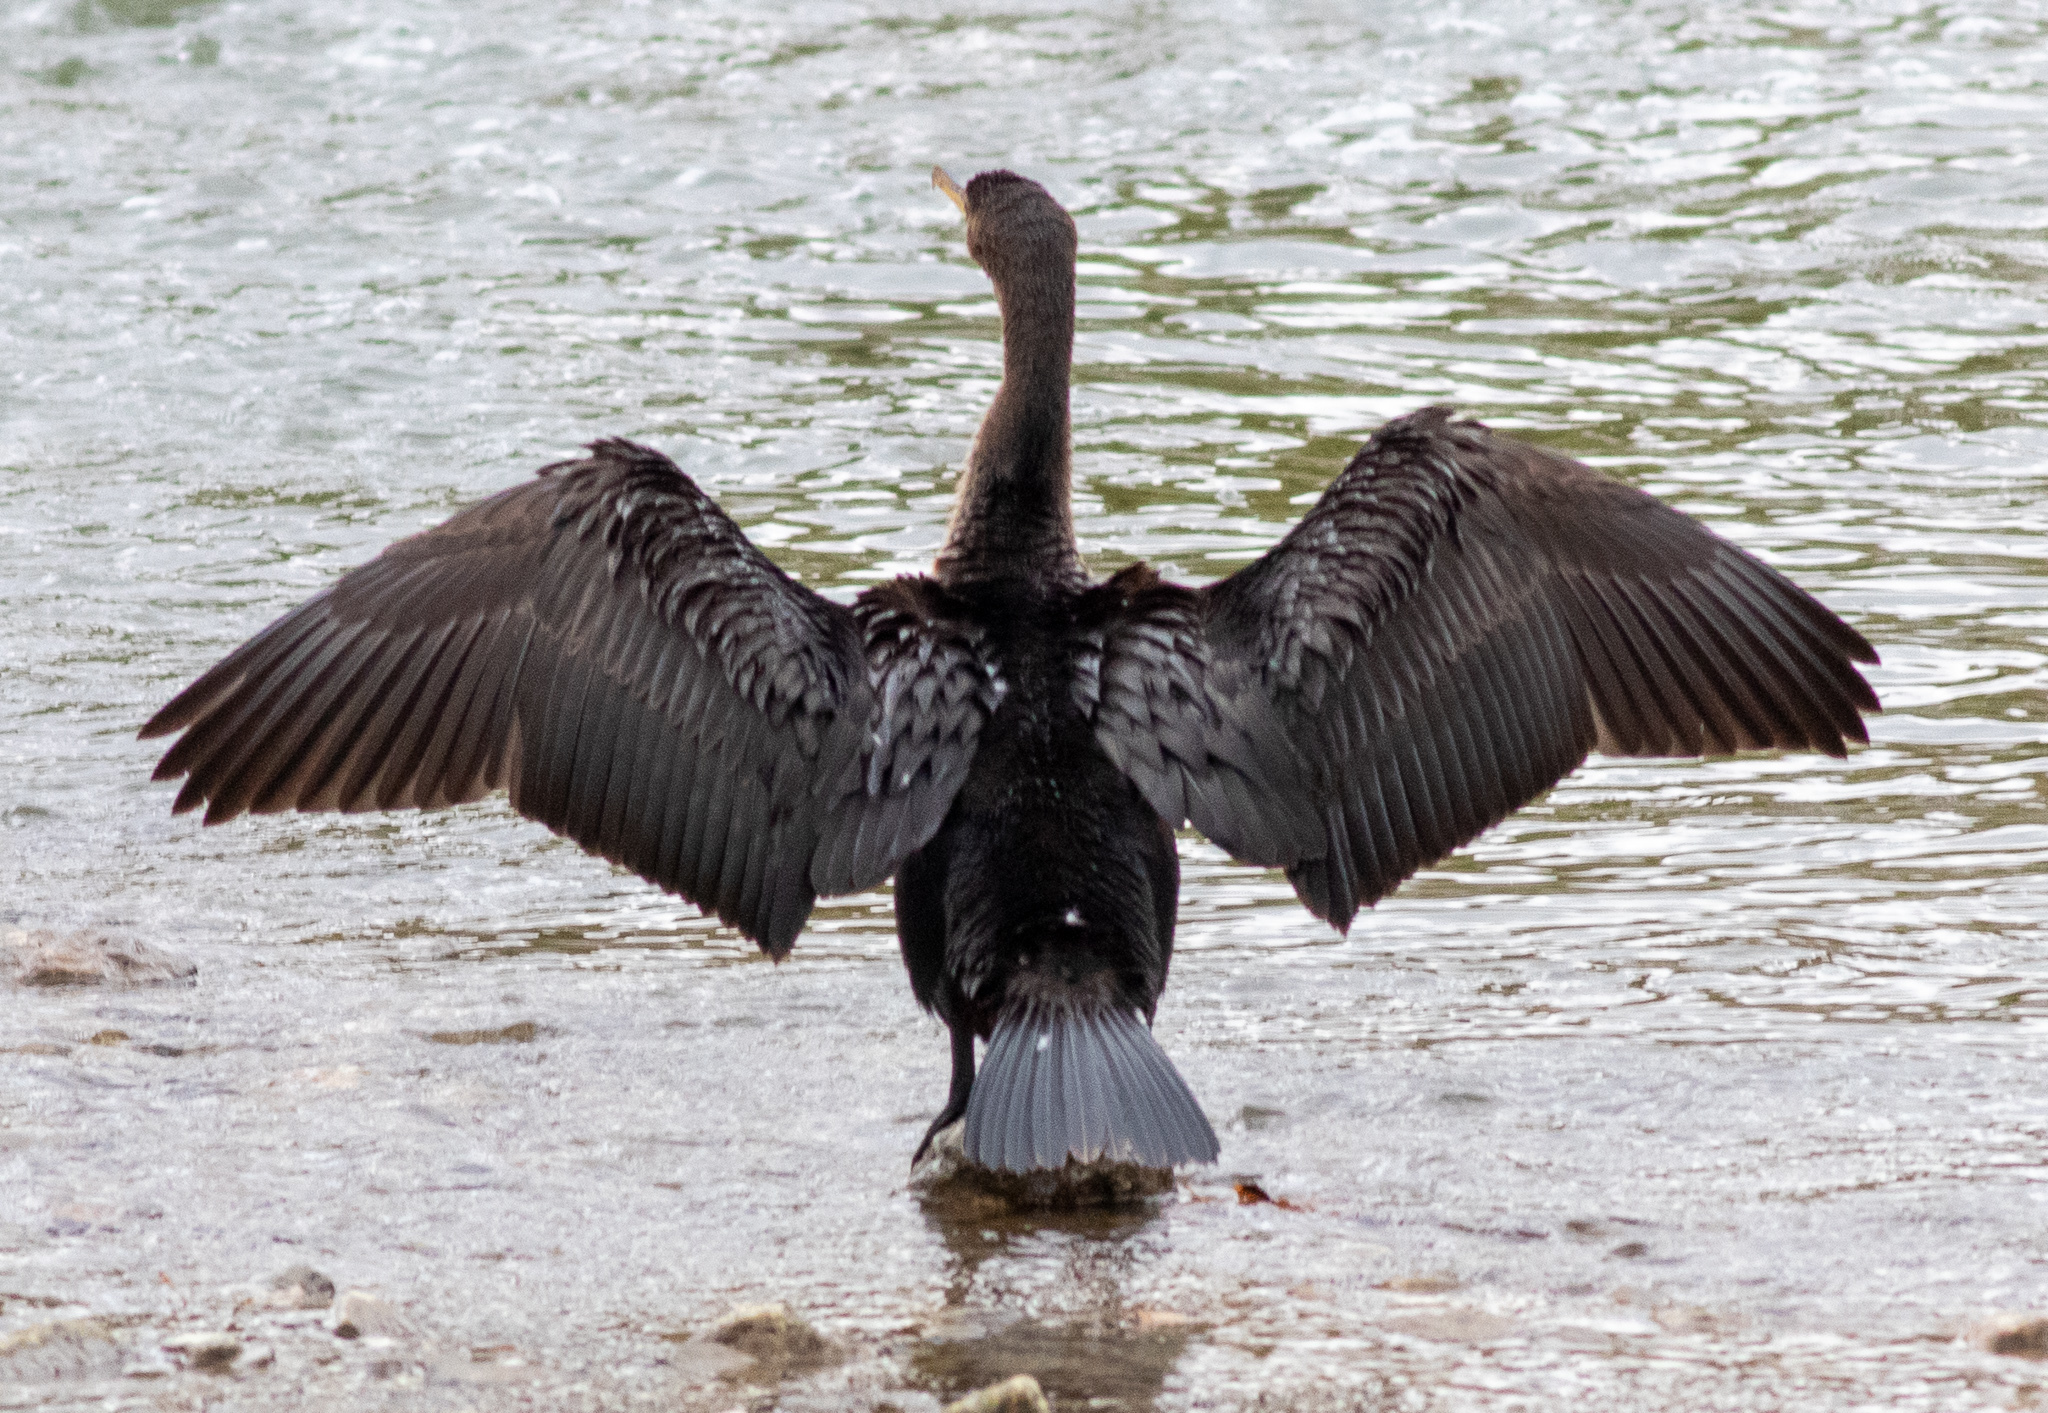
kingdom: Animalia
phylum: Chordata
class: Aves
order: Suliformes
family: Phalacrocoracidae
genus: Phalacrocorax
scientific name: Phalacrocorax auritus
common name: Double-crested cormorant
